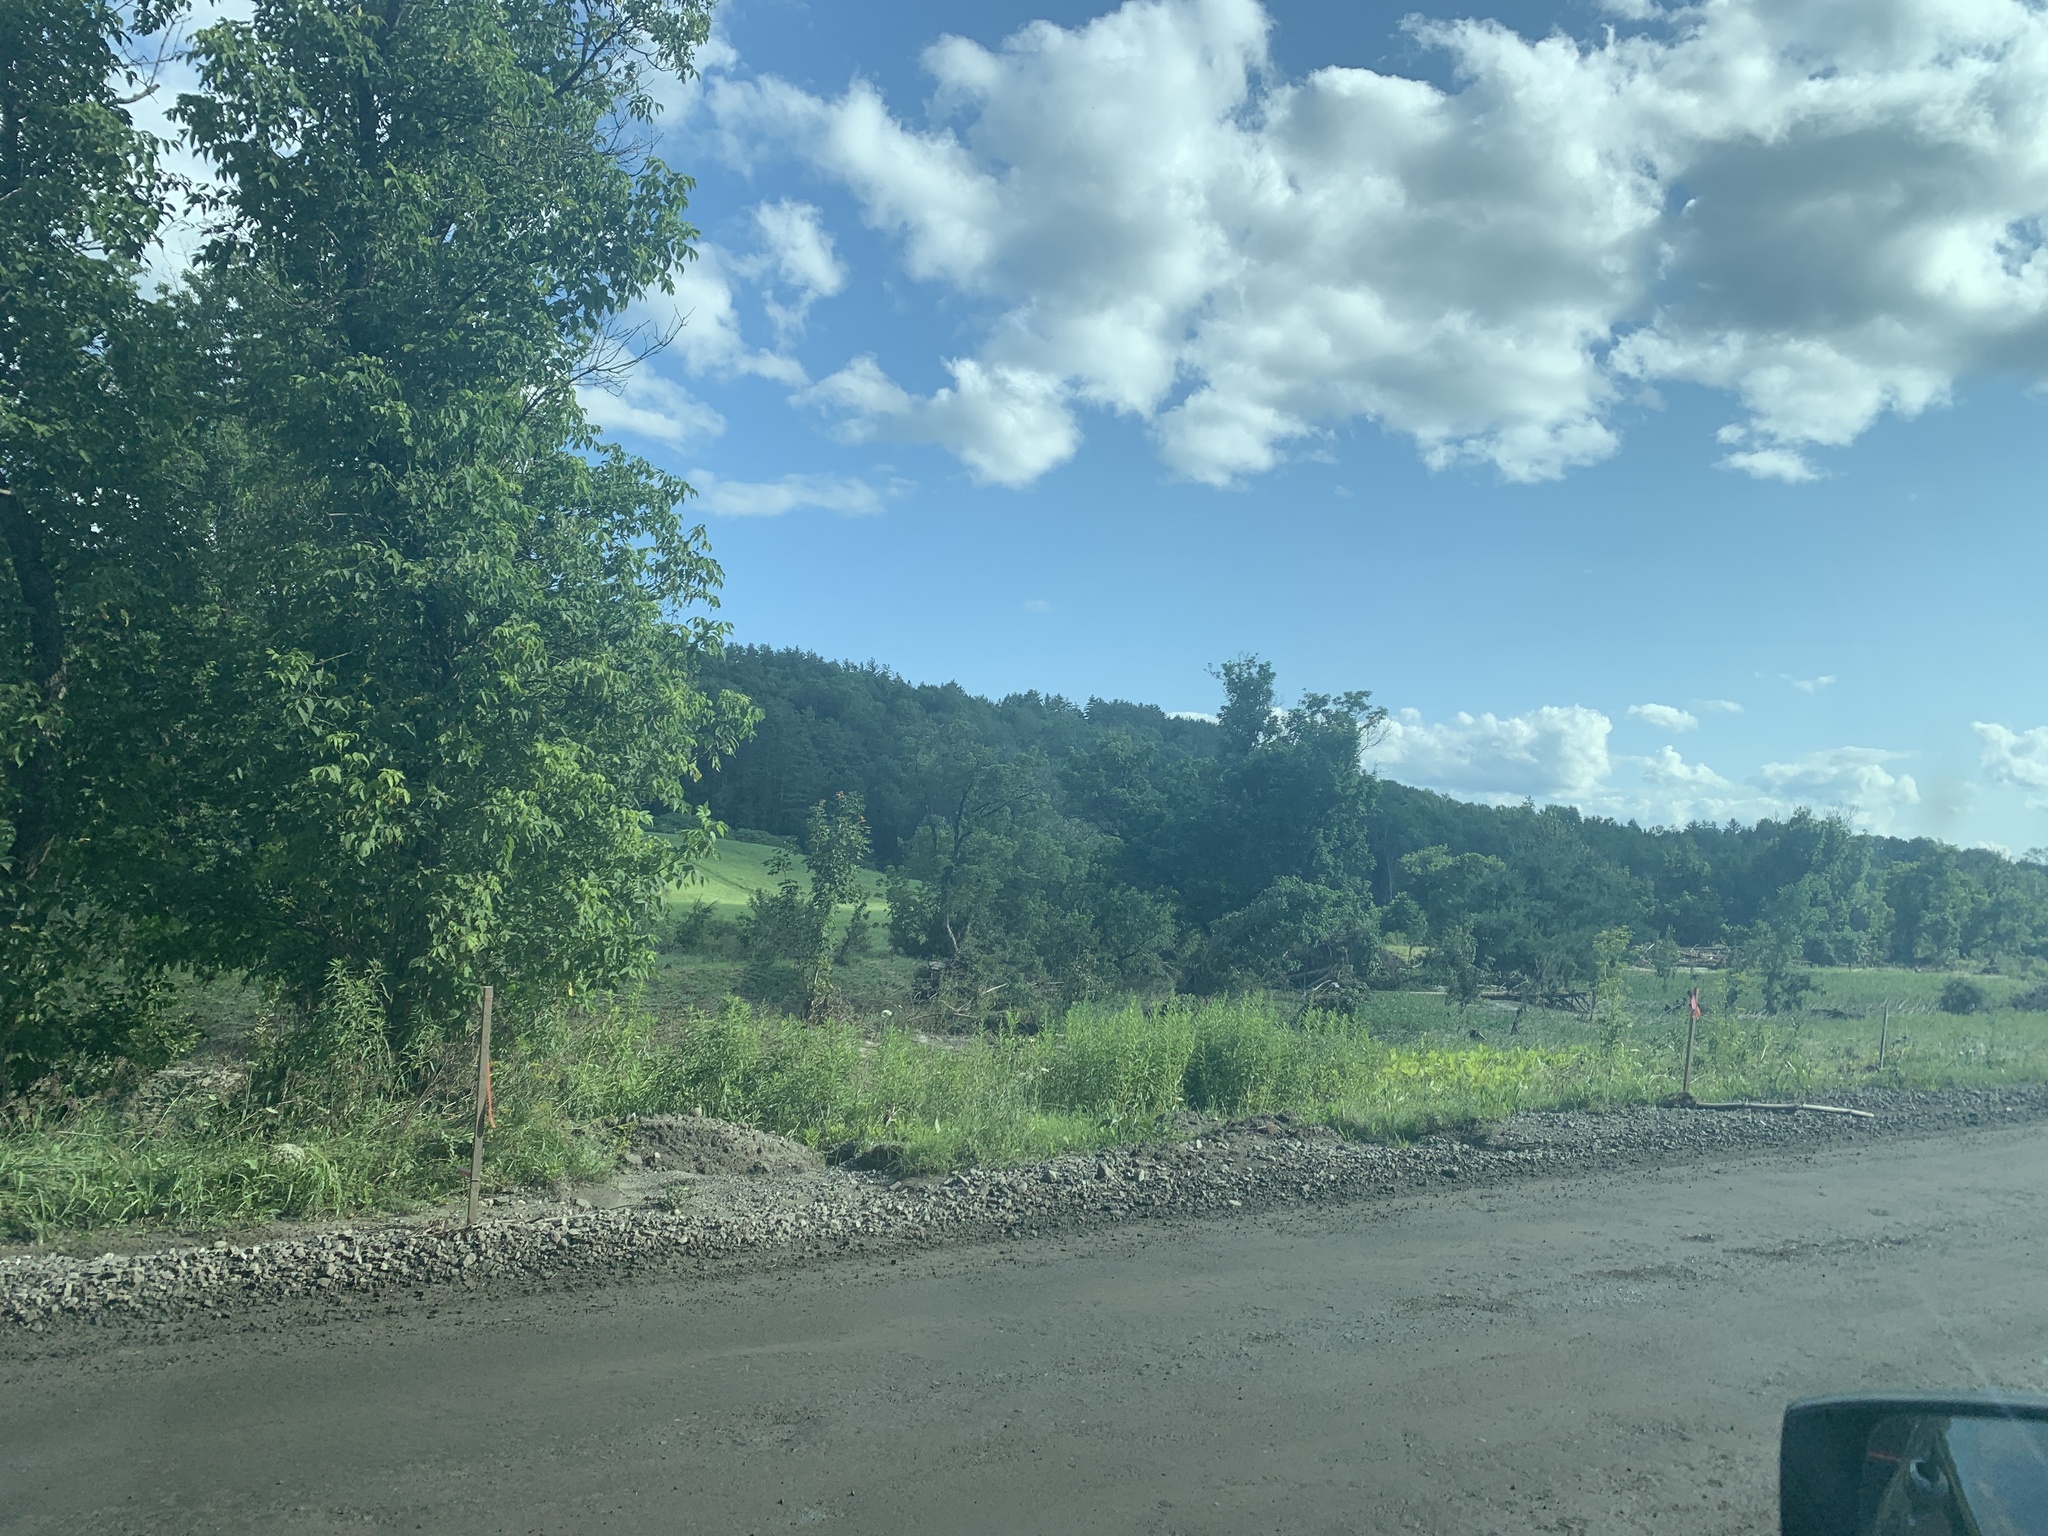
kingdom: Plantae
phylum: Tracheophyta
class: Magnoliopsida
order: Sapindales
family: Sapindaceae
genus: Acer
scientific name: Acer negundo
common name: Ashleaf maple
